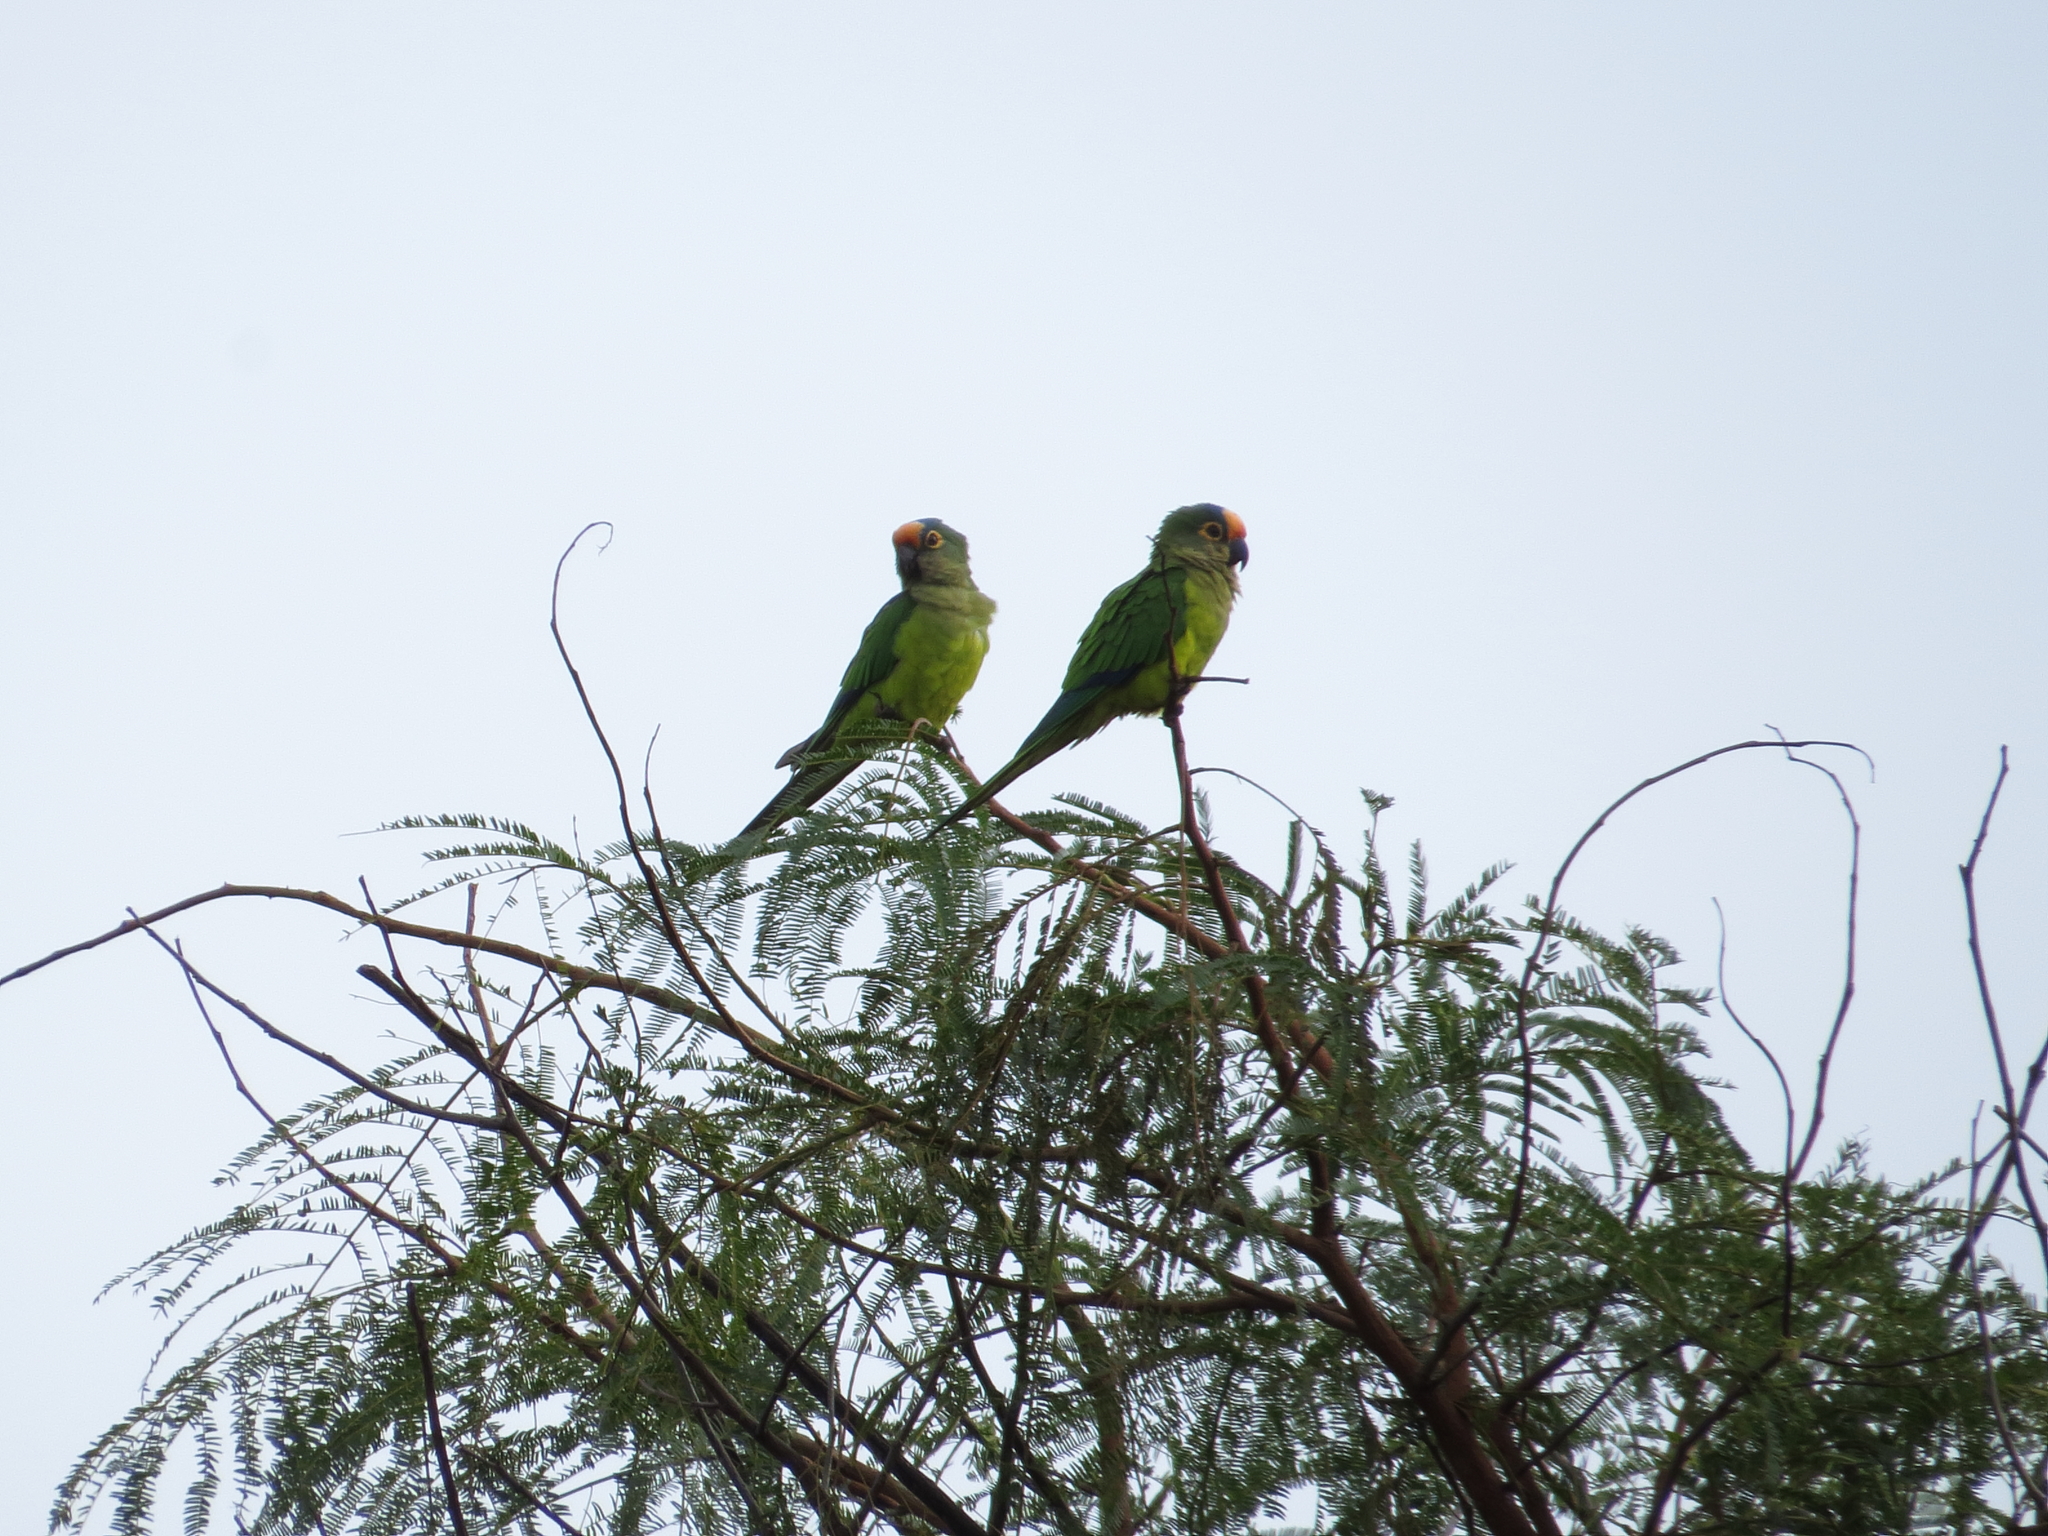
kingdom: Animalia
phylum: Chordata
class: Aves
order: Psittaciformes
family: Psittacidae
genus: Aratinga
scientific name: Aratinga aurea
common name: Peach-fronted parakeet
